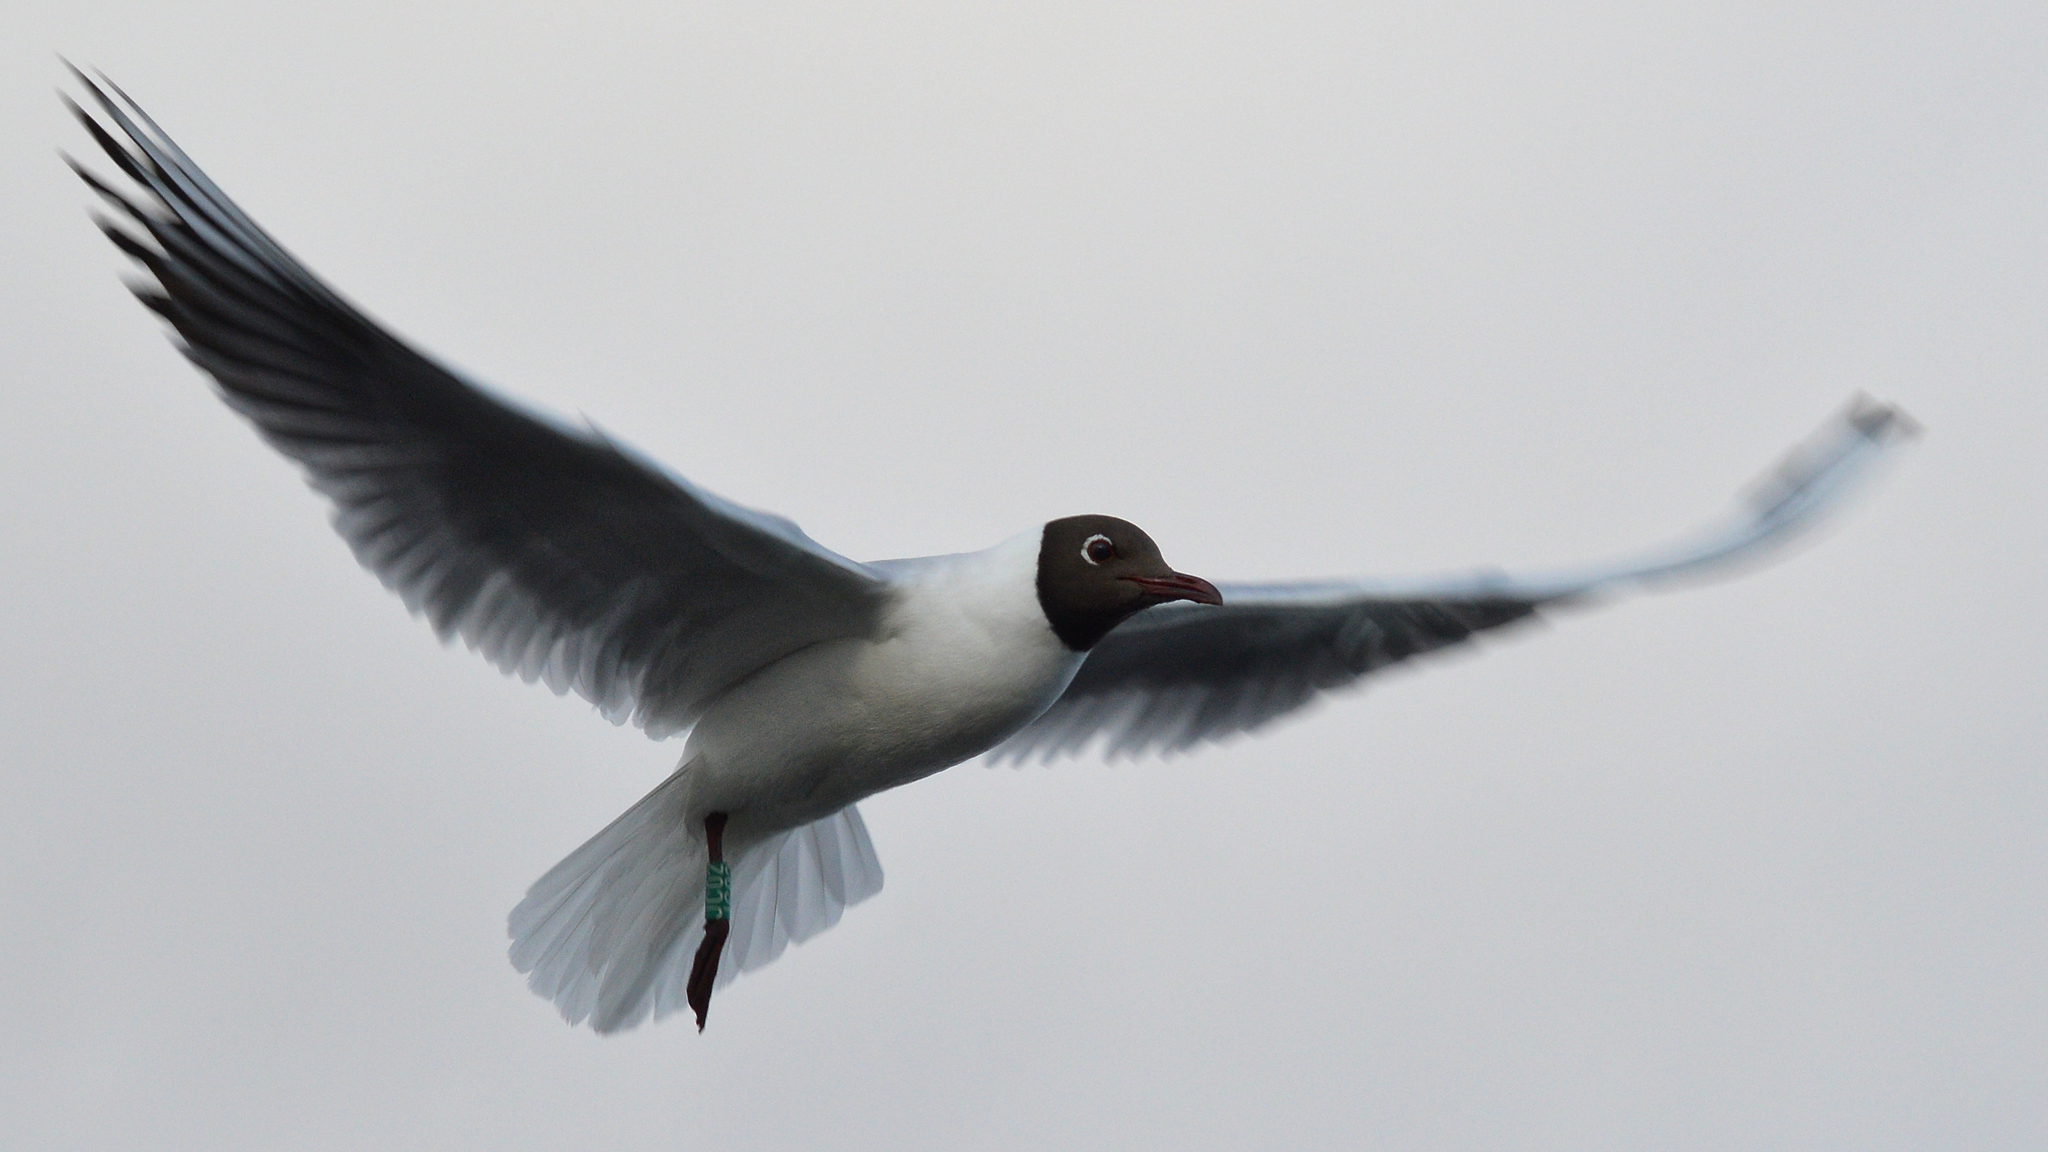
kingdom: Animalia
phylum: Chordata
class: Aves
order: Charadriiformes
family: Laridae
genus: Chroicocephalus
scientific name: Chroicocephalus ridibundus
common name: Black-headed gull
